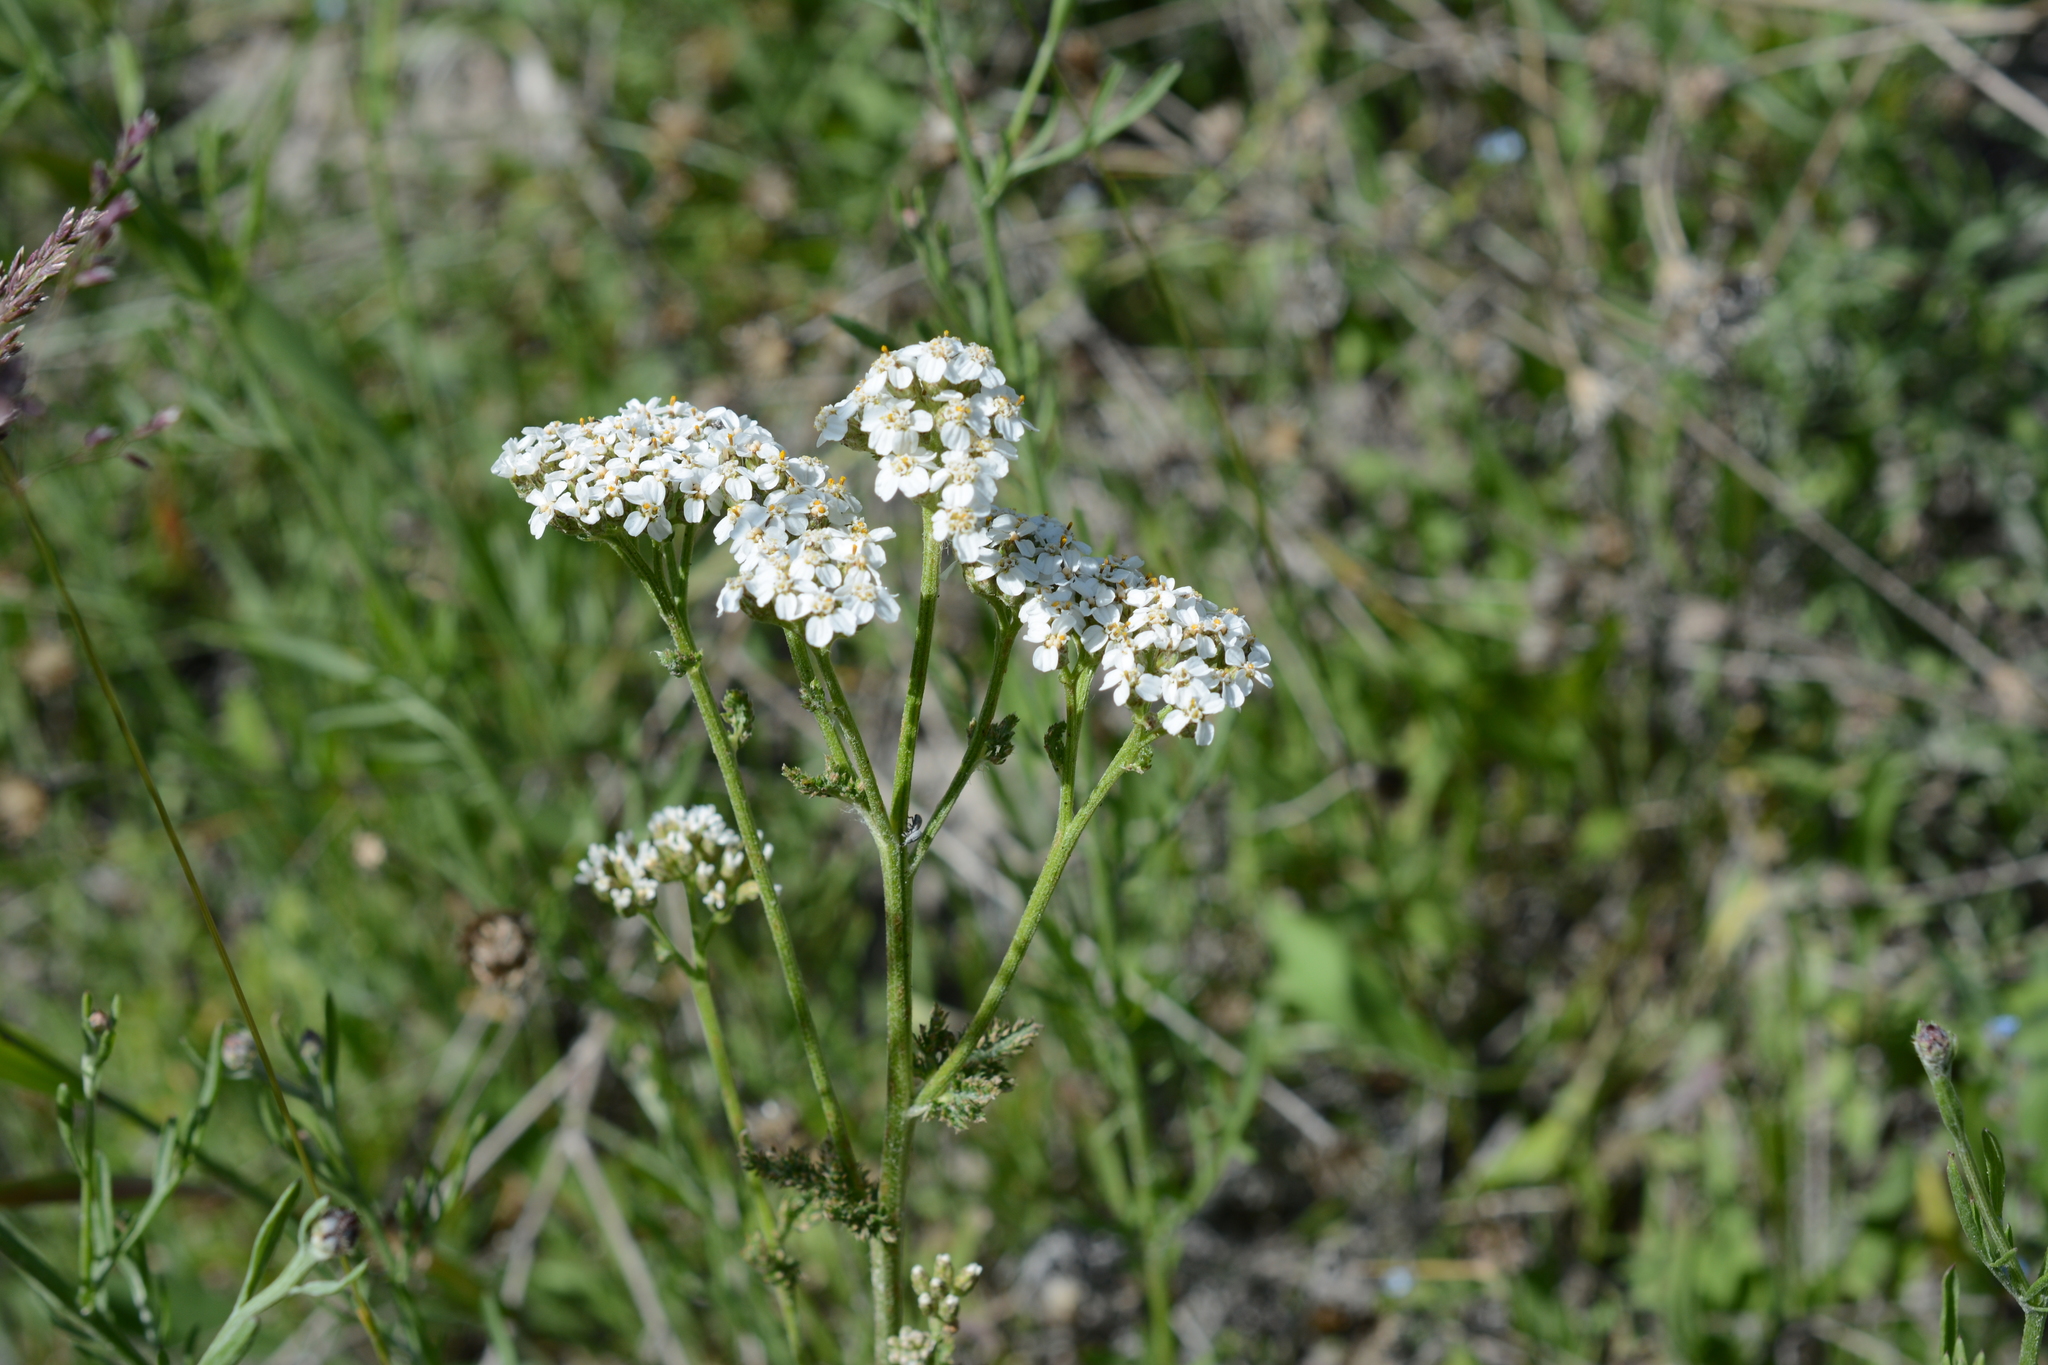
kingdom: Plantae
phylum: Tracheophyta
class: Magnoliopsida
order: Asterales
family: Asteraceae
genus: Achillea
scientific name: Achillea millefolium
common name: Yarrow
